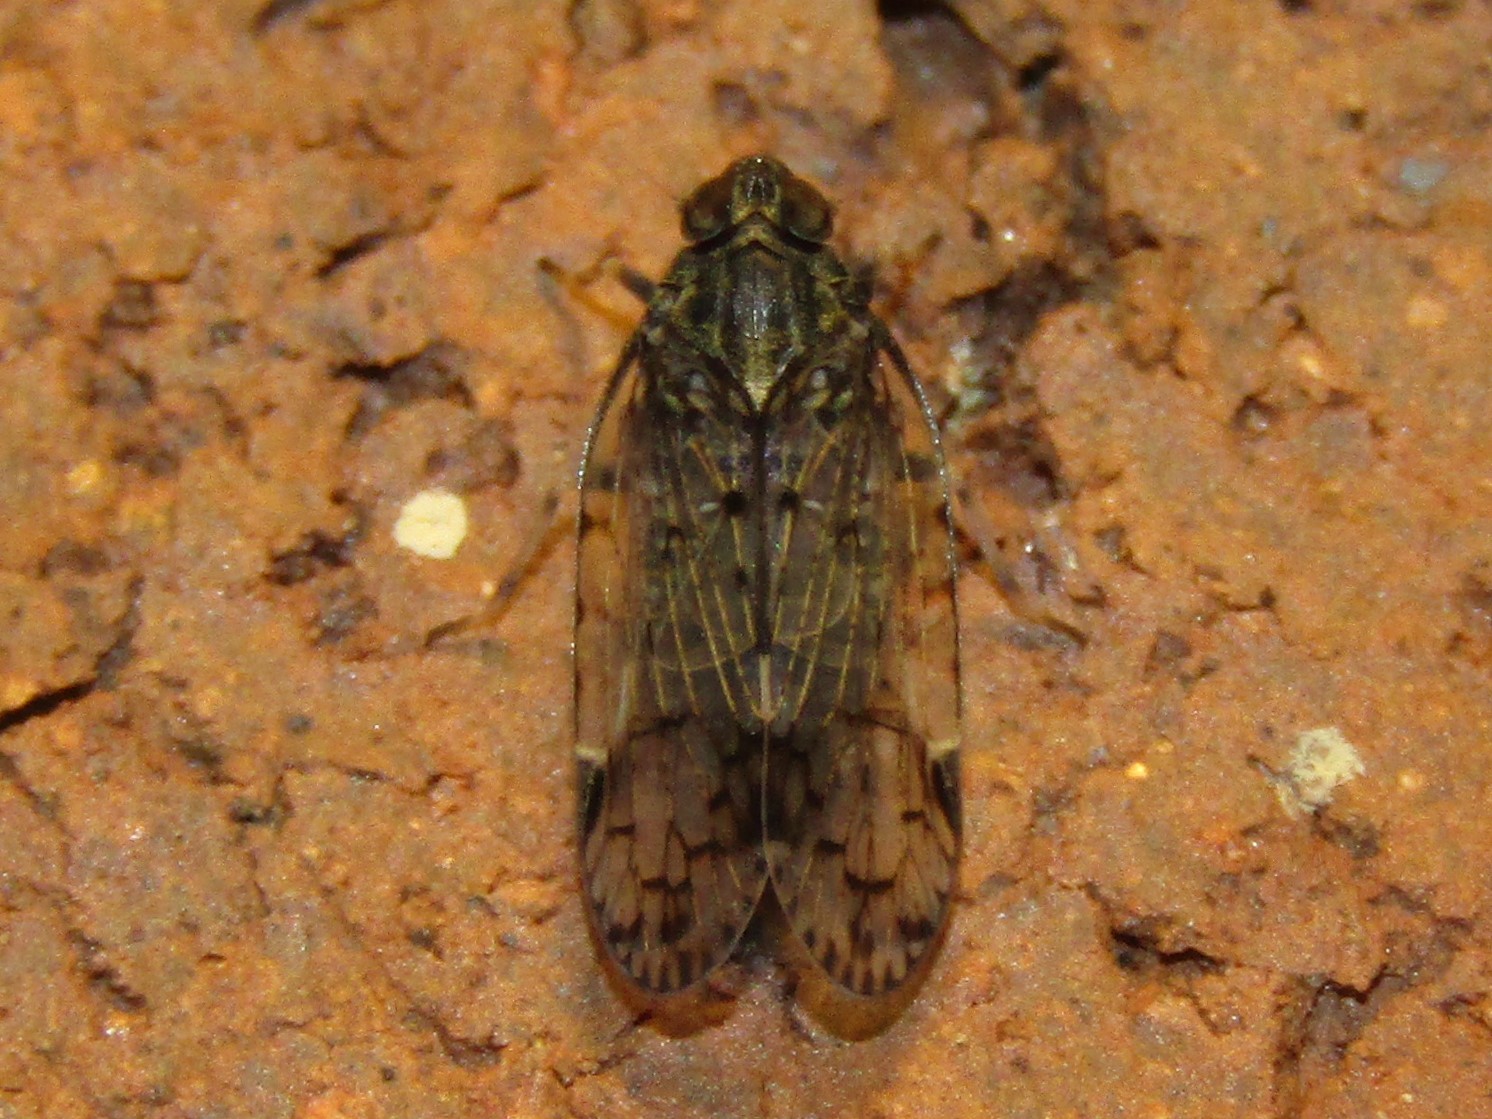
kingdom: Animalia
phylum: Arthropoda
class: Insecta
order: Hemiptera
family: Cixiidae
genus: Melanoliarus
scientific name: Melanoliarus placitus
